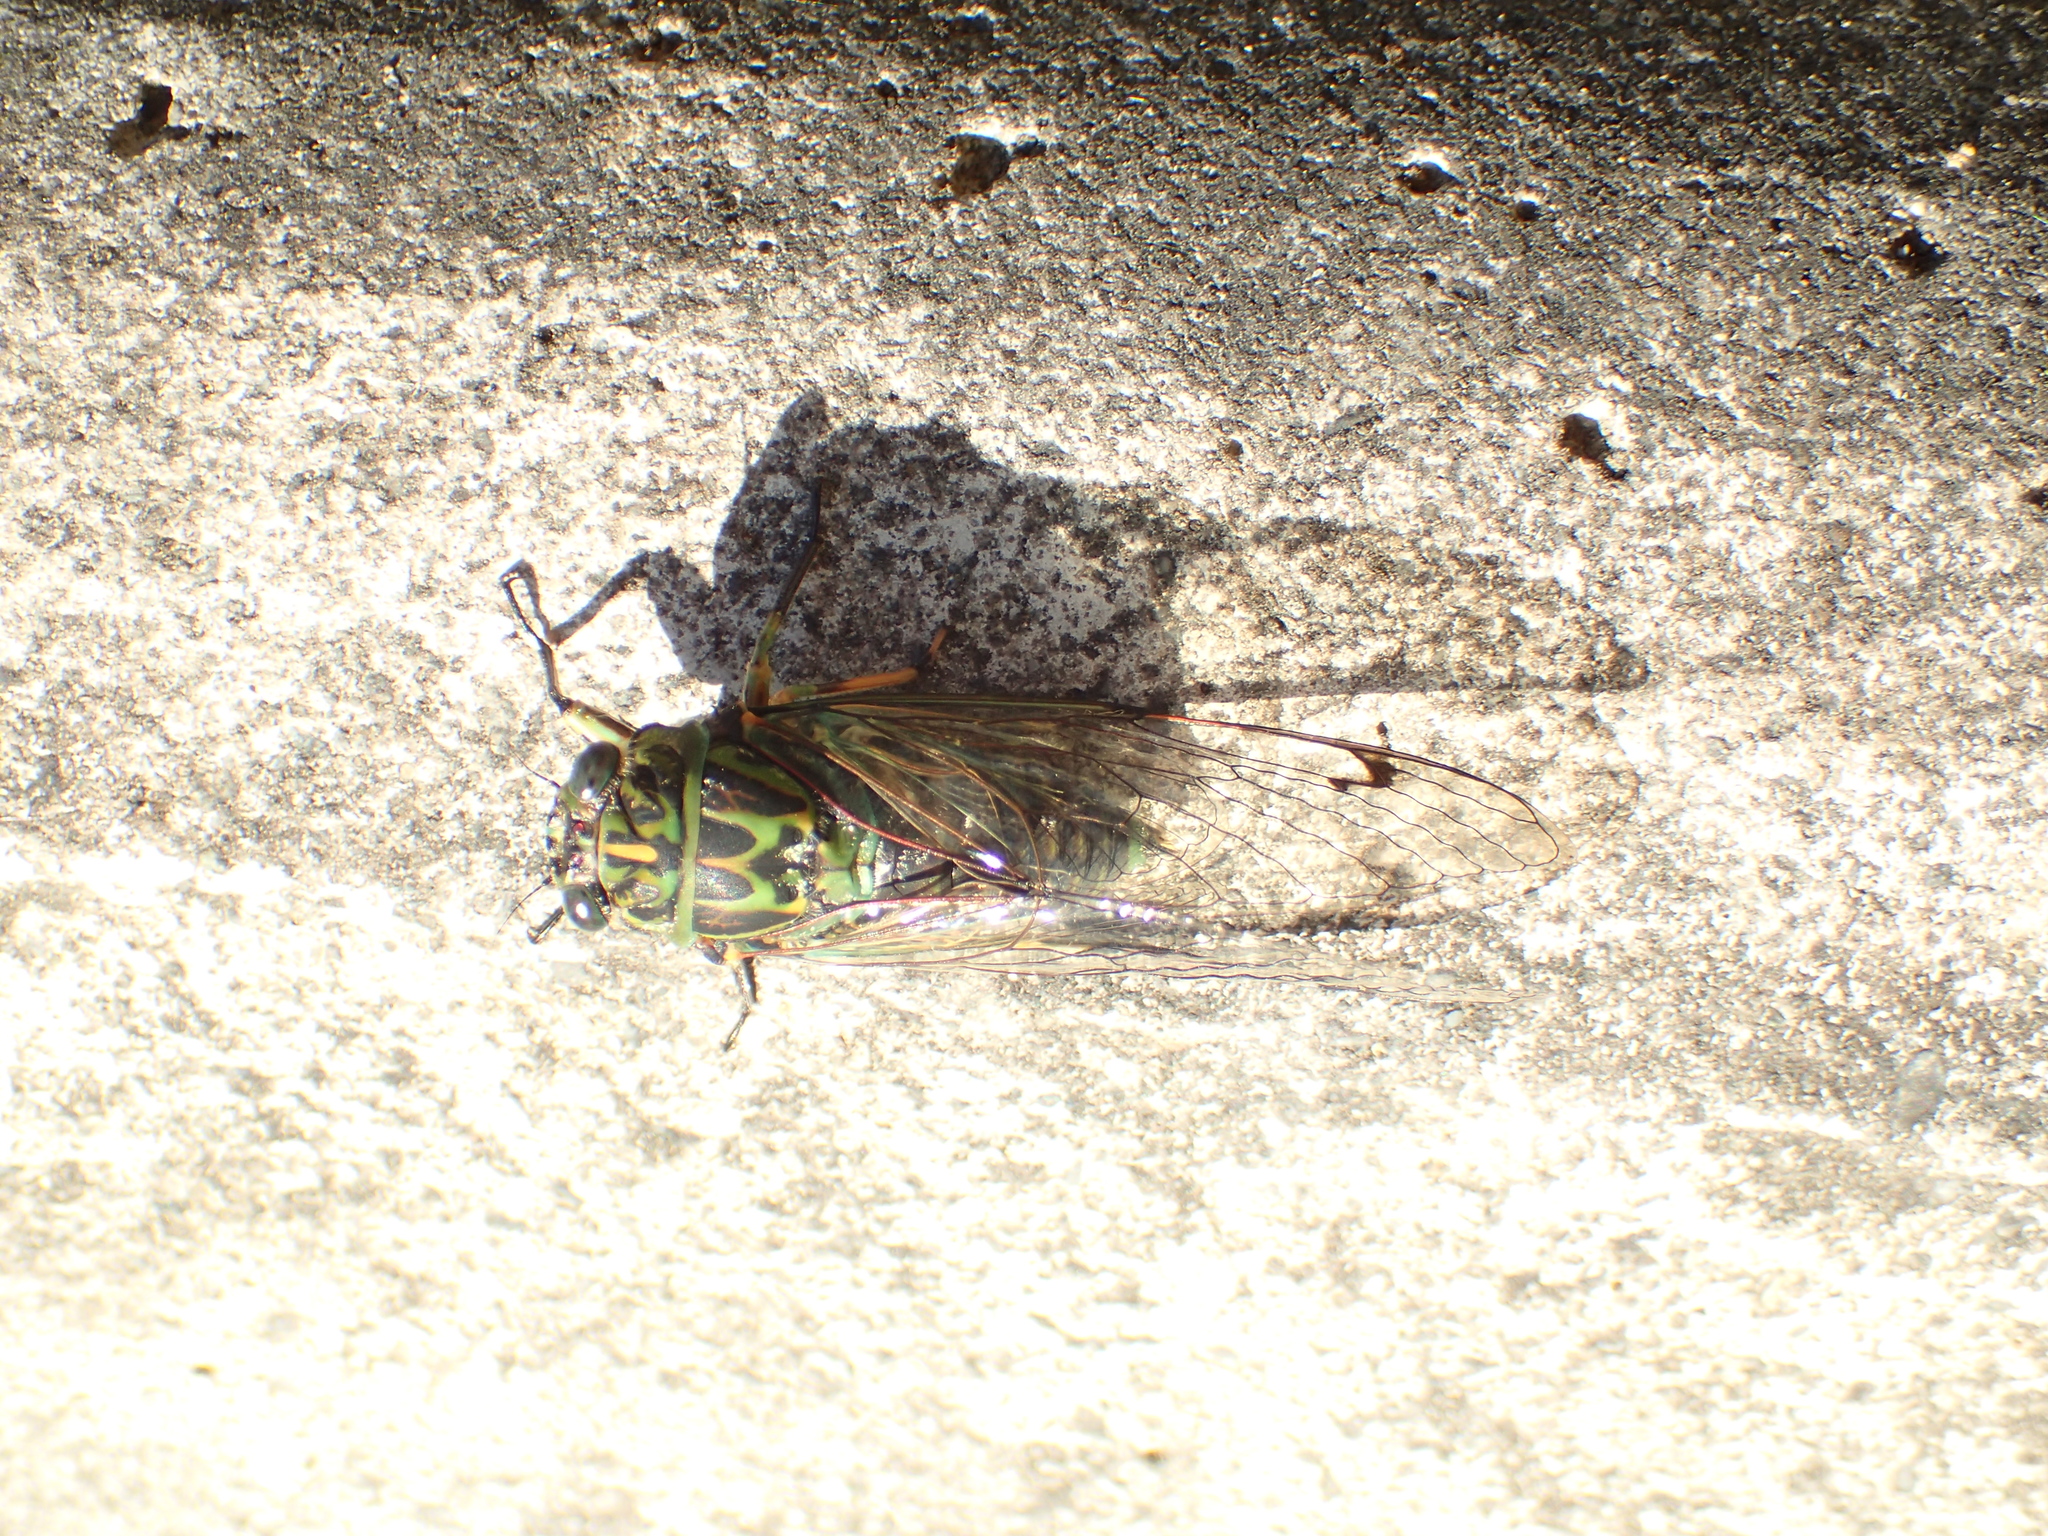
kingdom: Animalia
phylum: Arthropoda
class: Insecta
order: Hemiptera
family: Cicadidae
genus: Amphipsalta
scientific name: Amphipsalta zelandica
